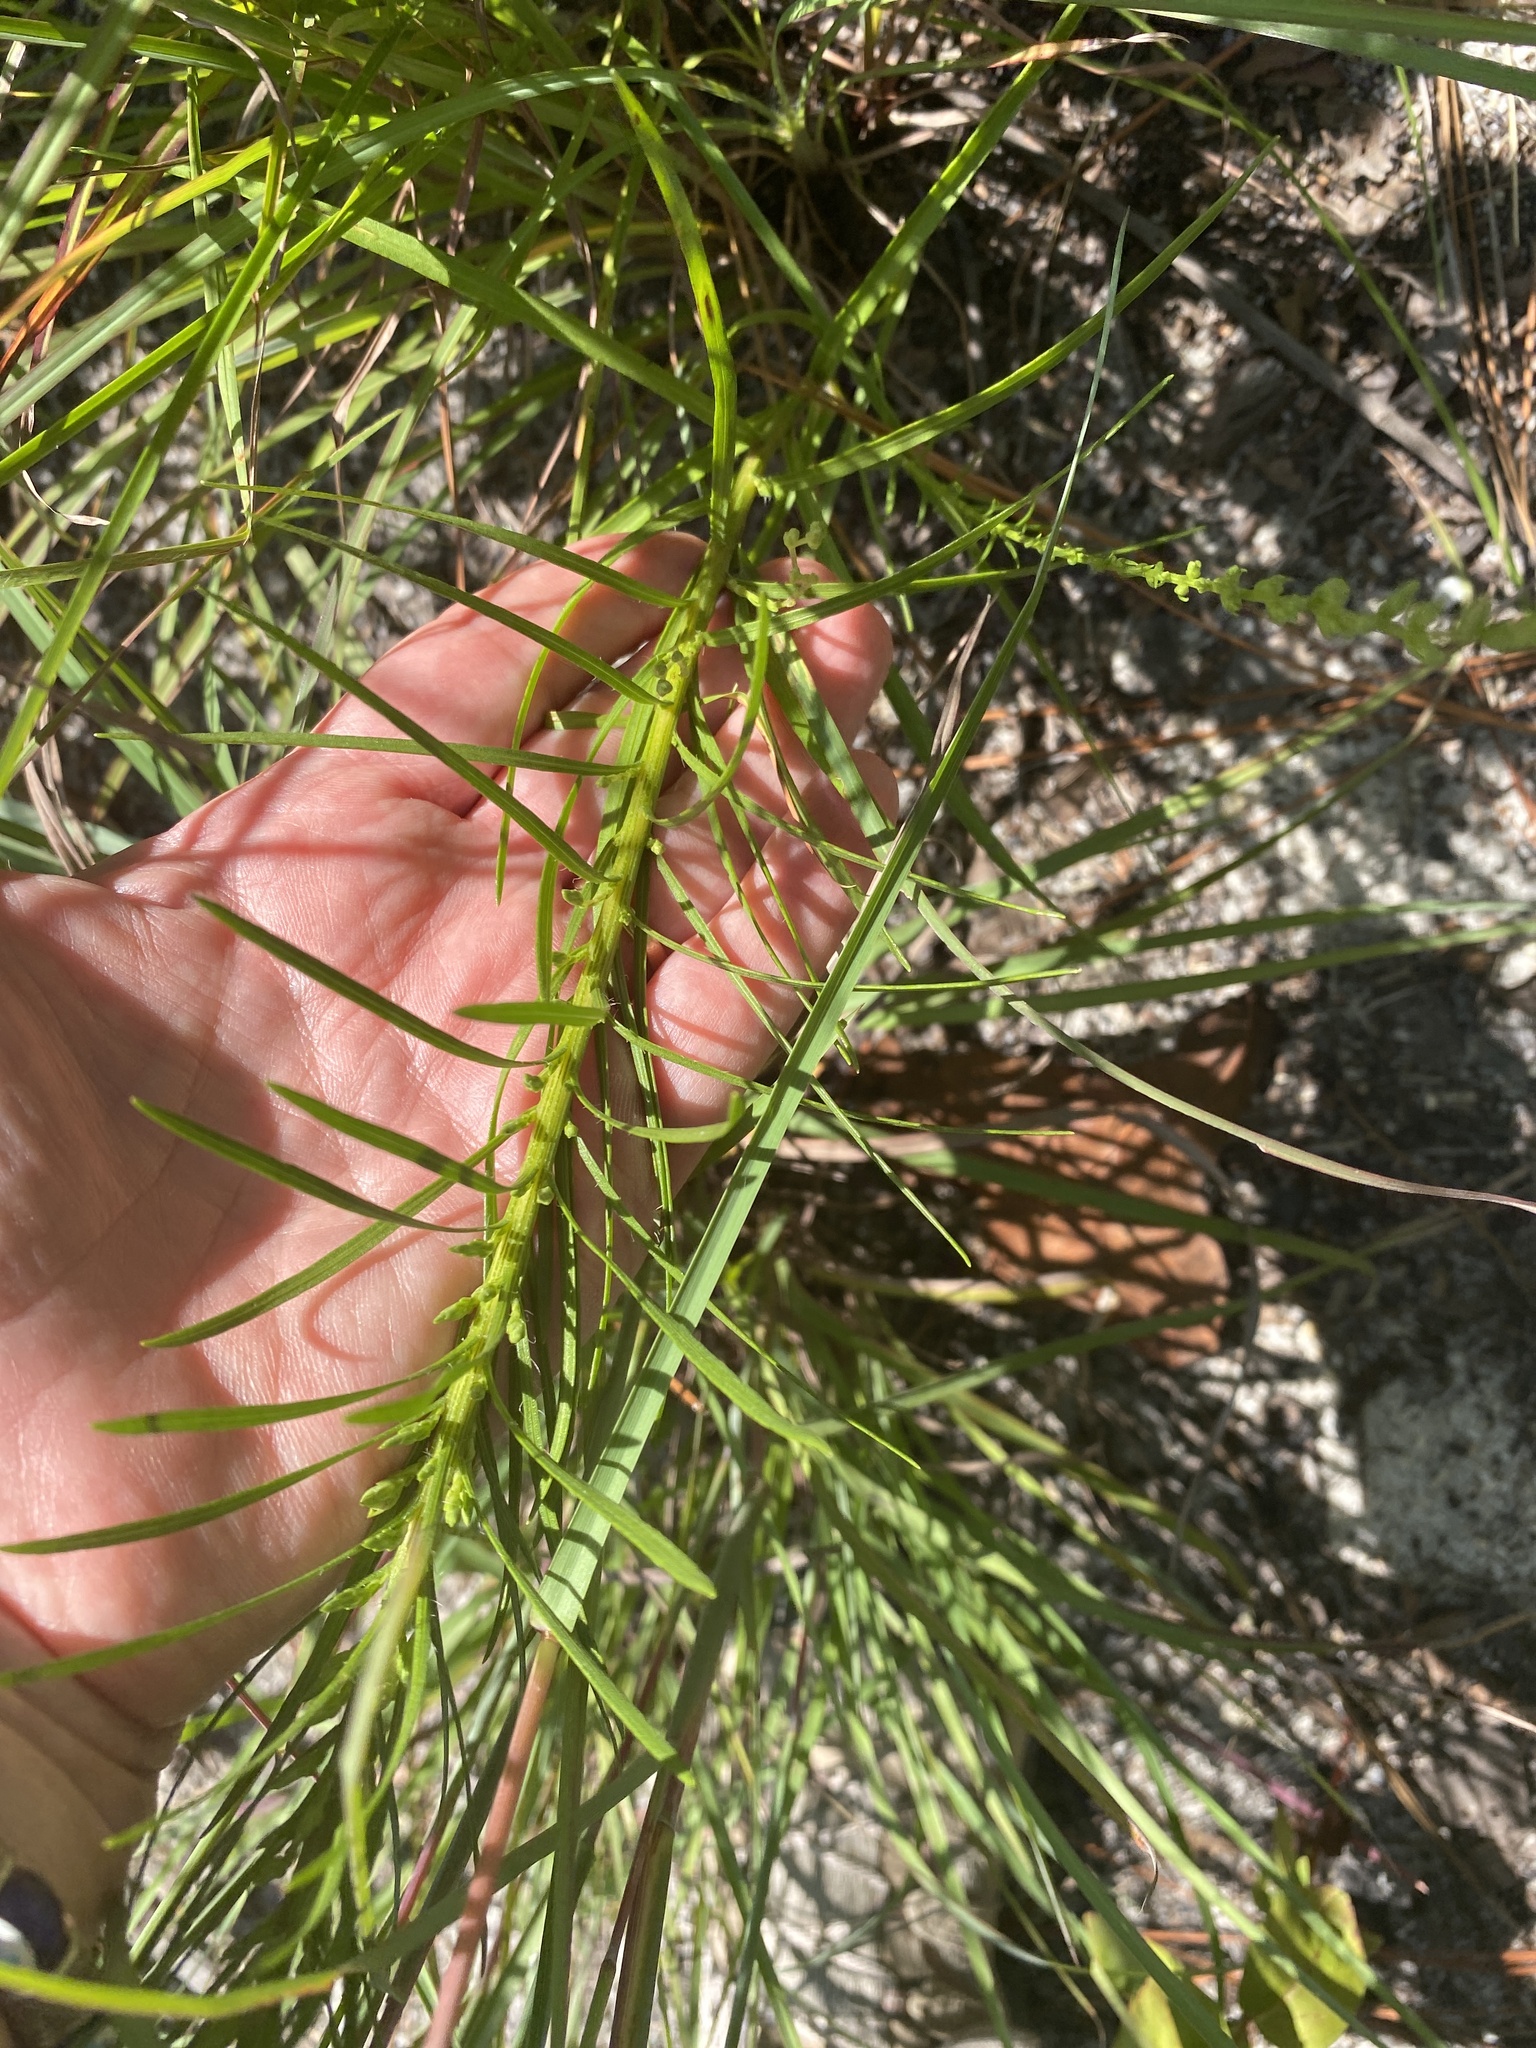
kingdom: Plantae
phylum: Tracheophyta
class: Magnoliopsida
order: Asterales
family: Asteraceae
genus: Liatris
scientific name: Liatris pilosa
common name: Grass-leaf gayfeather
